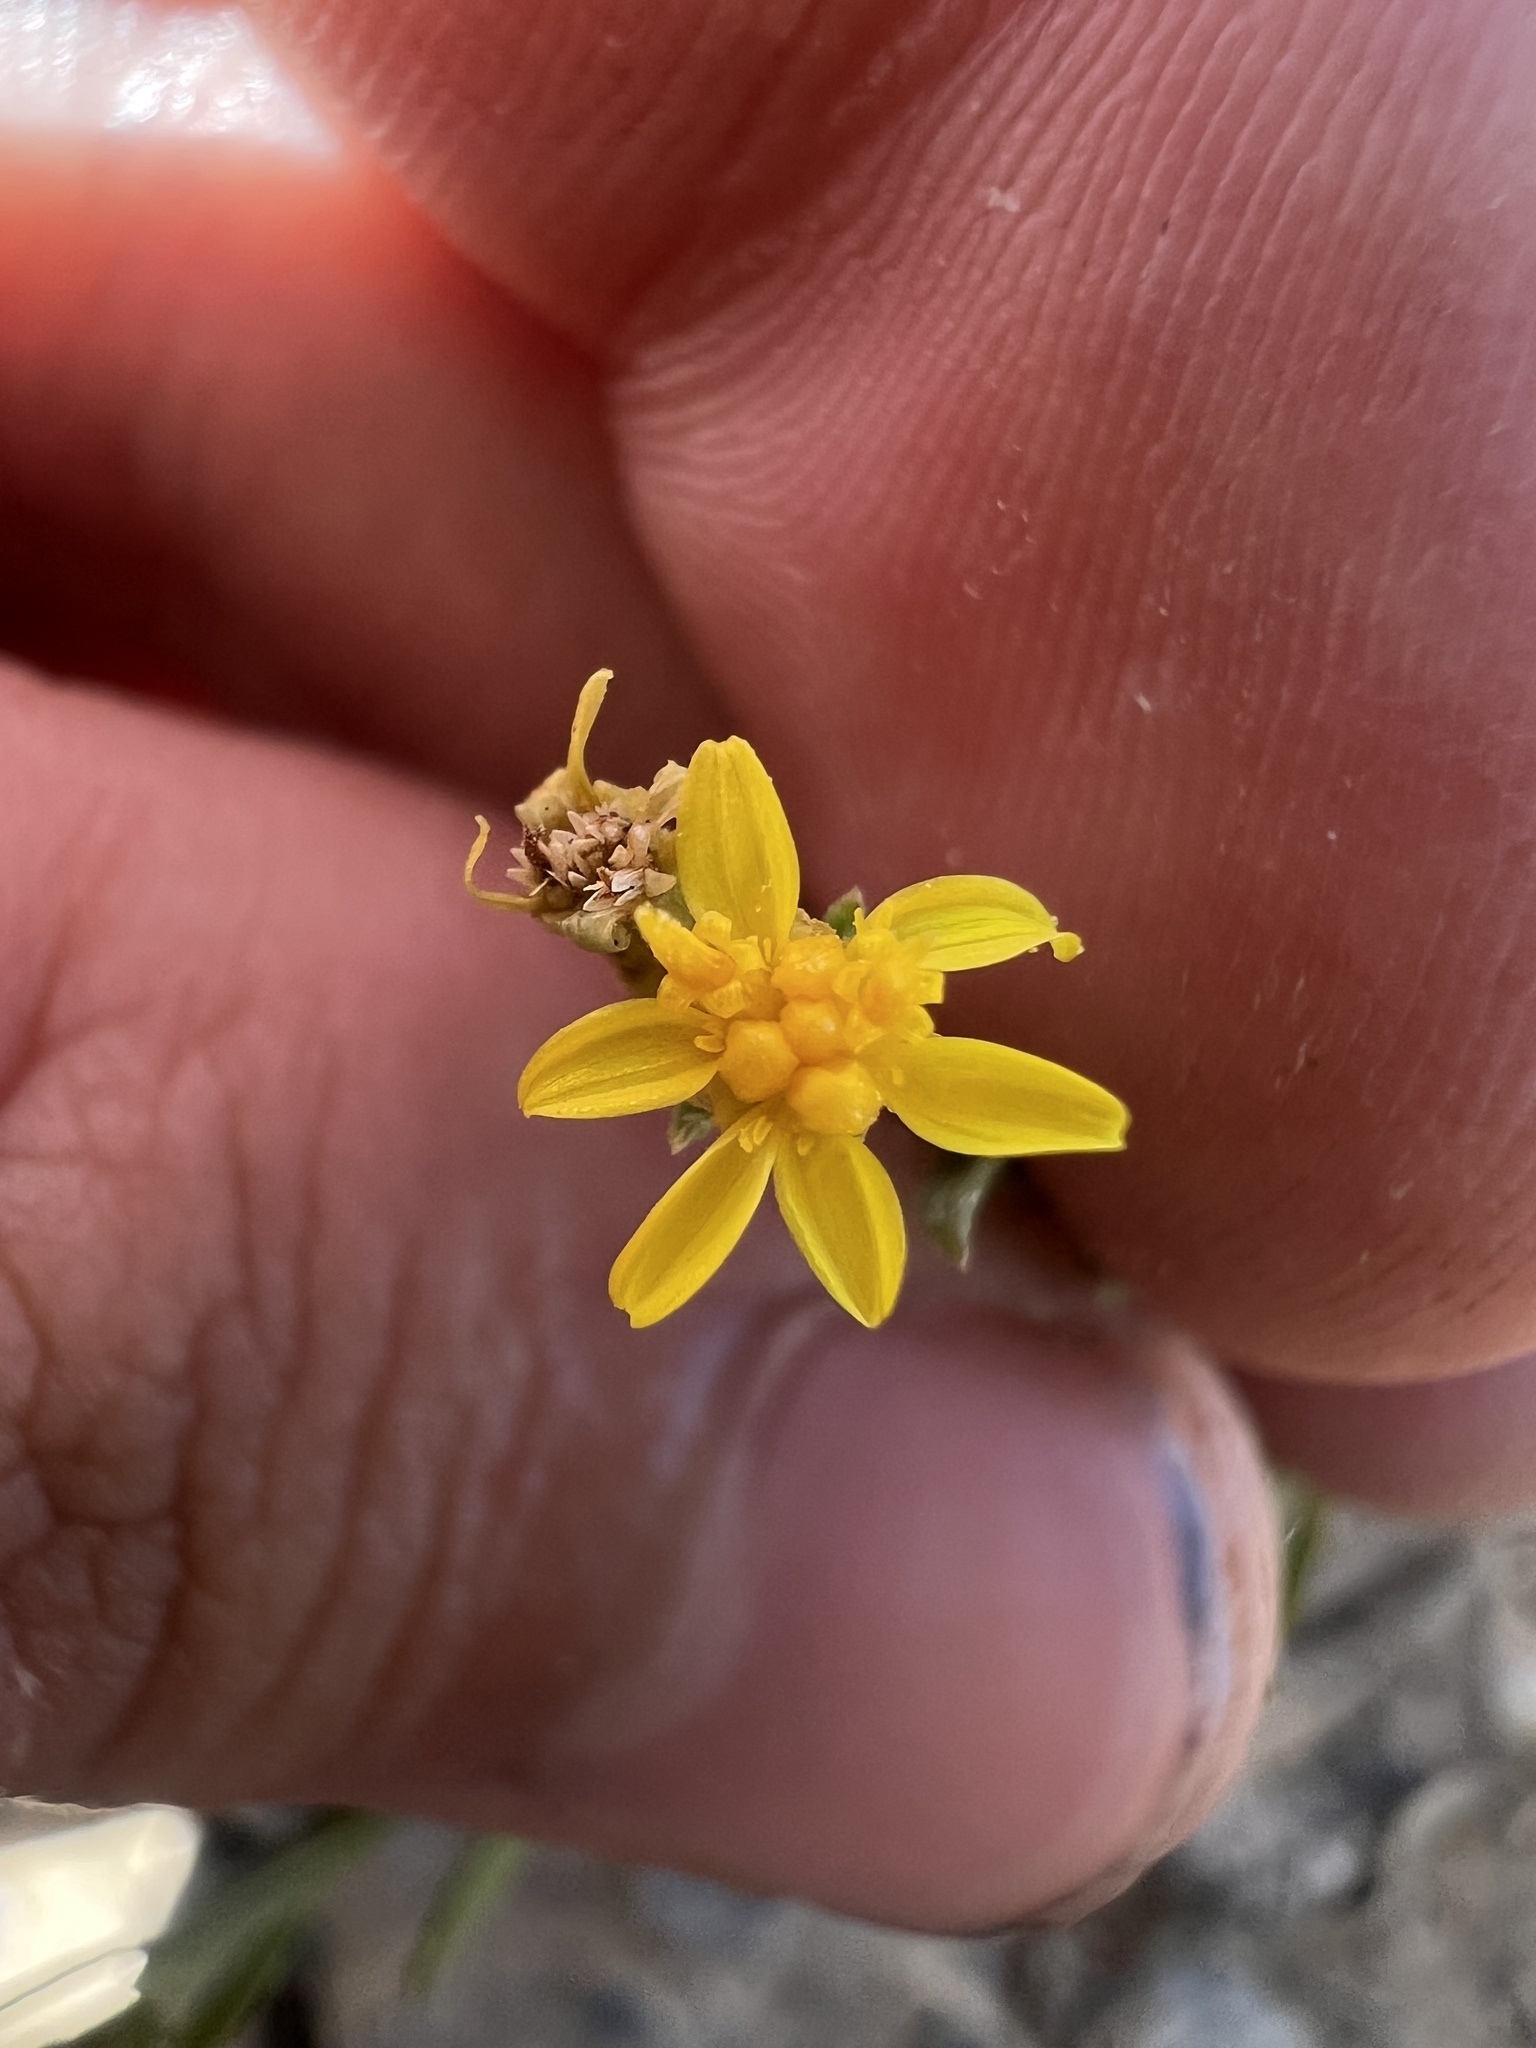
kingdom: Plantae
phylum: Tracheophyta
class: Magnoliopsida
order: Asterales
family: Asteraceae
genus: Gutierrezia
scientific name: Gutierrezia elegans
